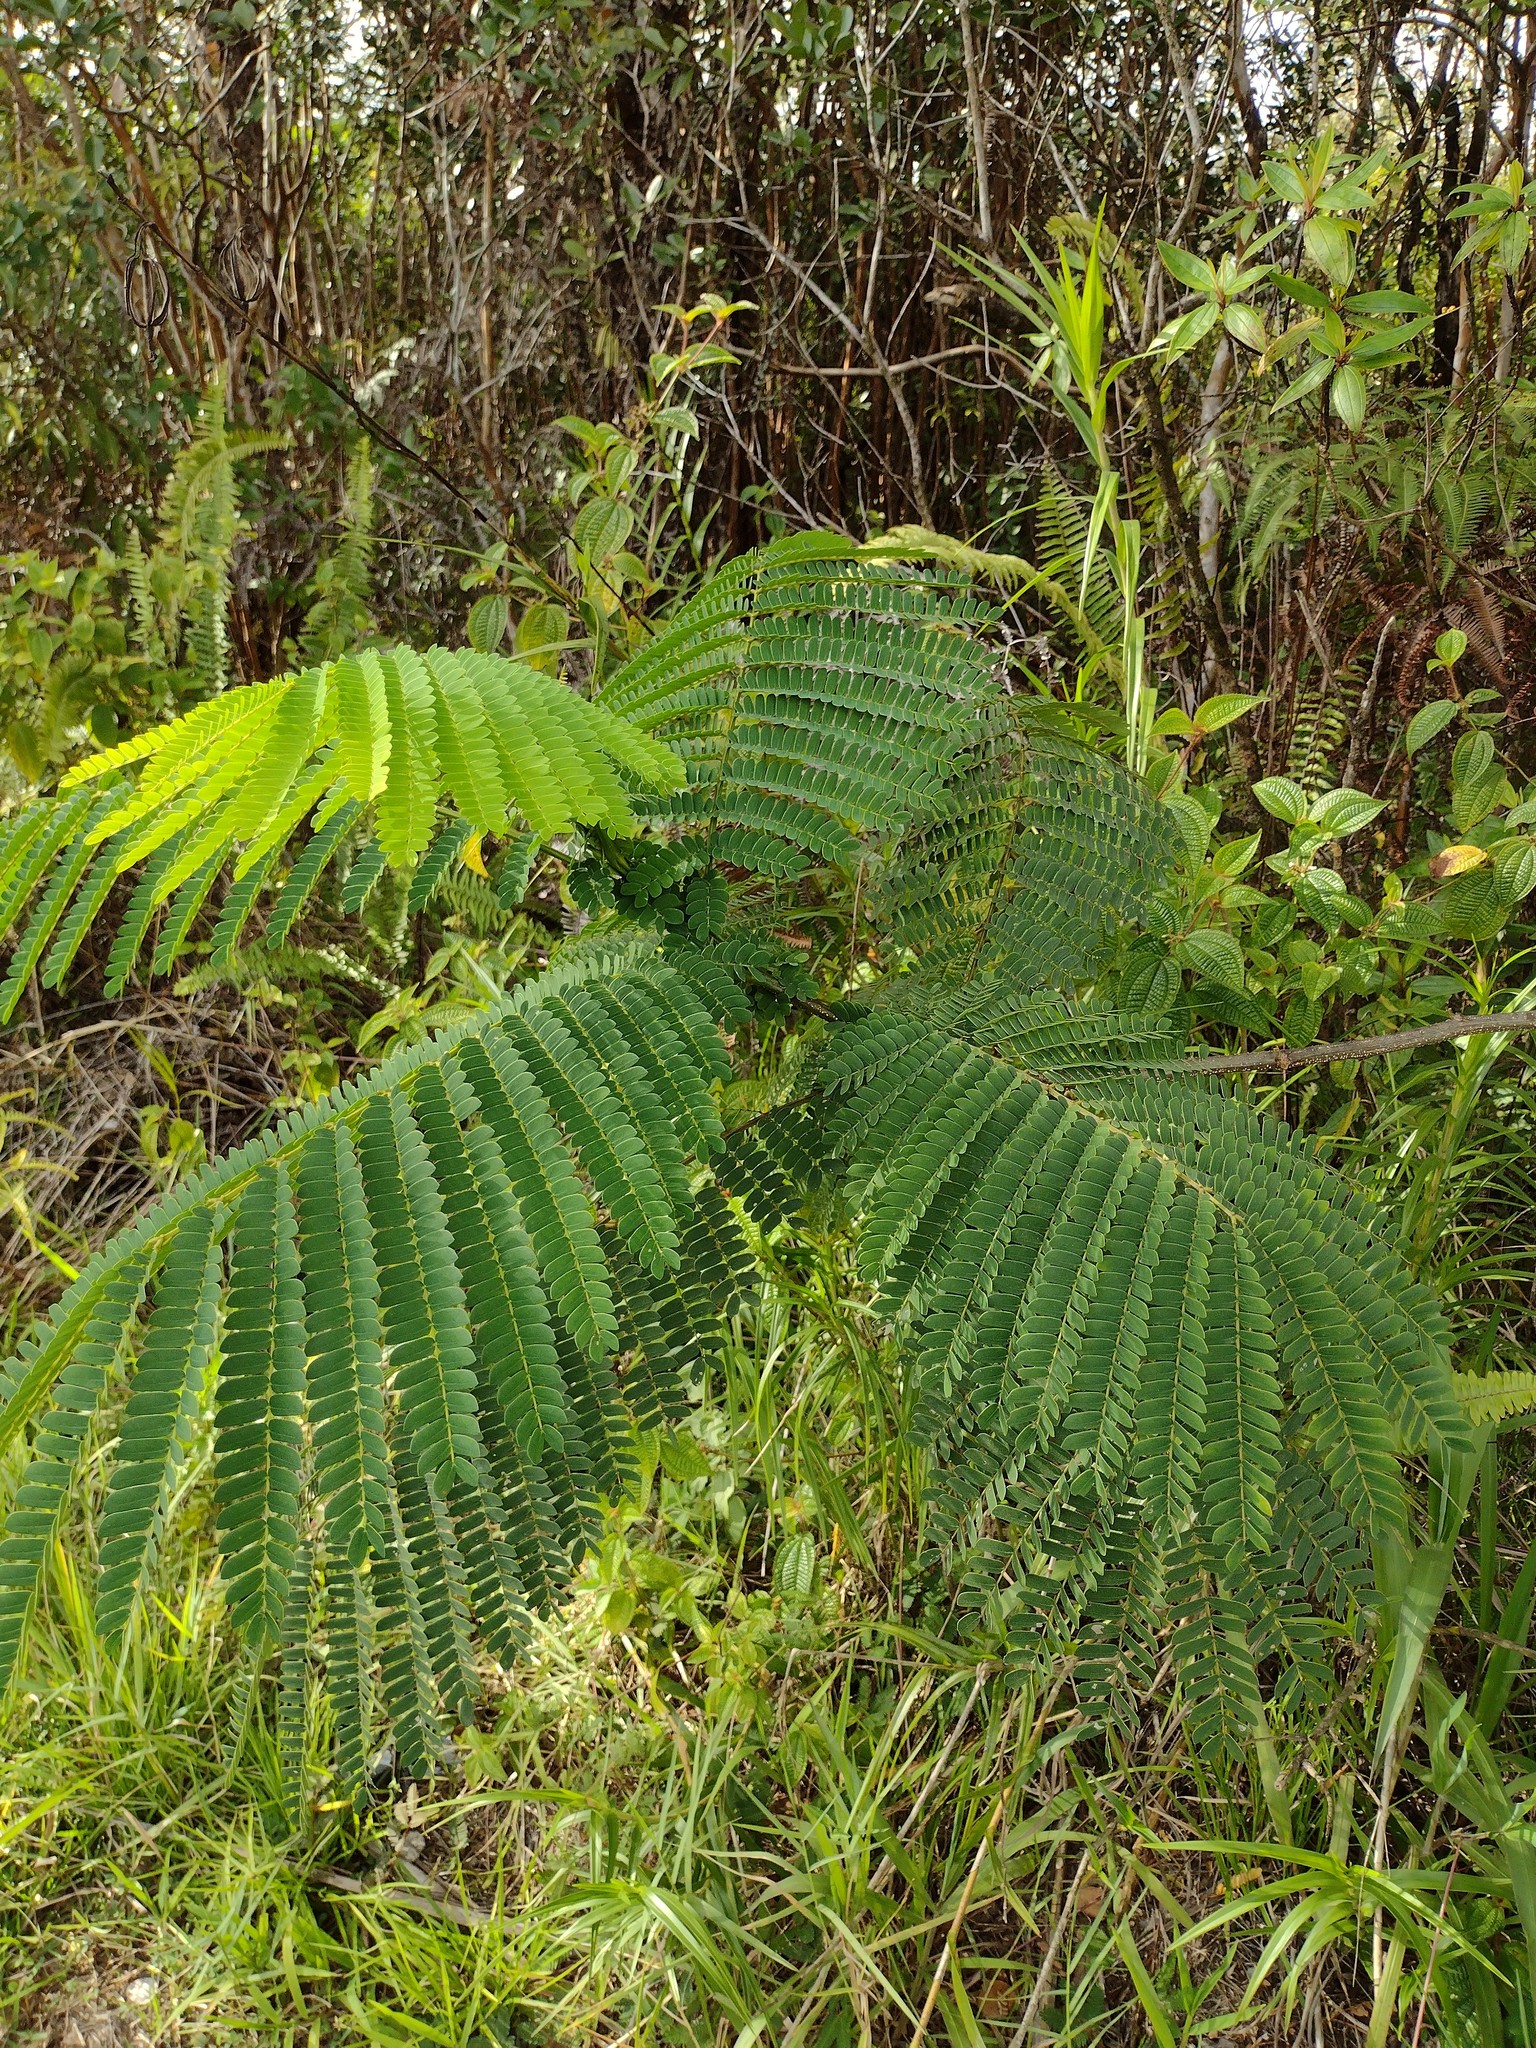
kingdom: Plantae
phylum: Tracheophyta
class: Magnoliopsida
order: Fabales
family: Fabaceae
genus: Falcataria
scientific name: Falcataria falcata
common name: Moluccan albizia
